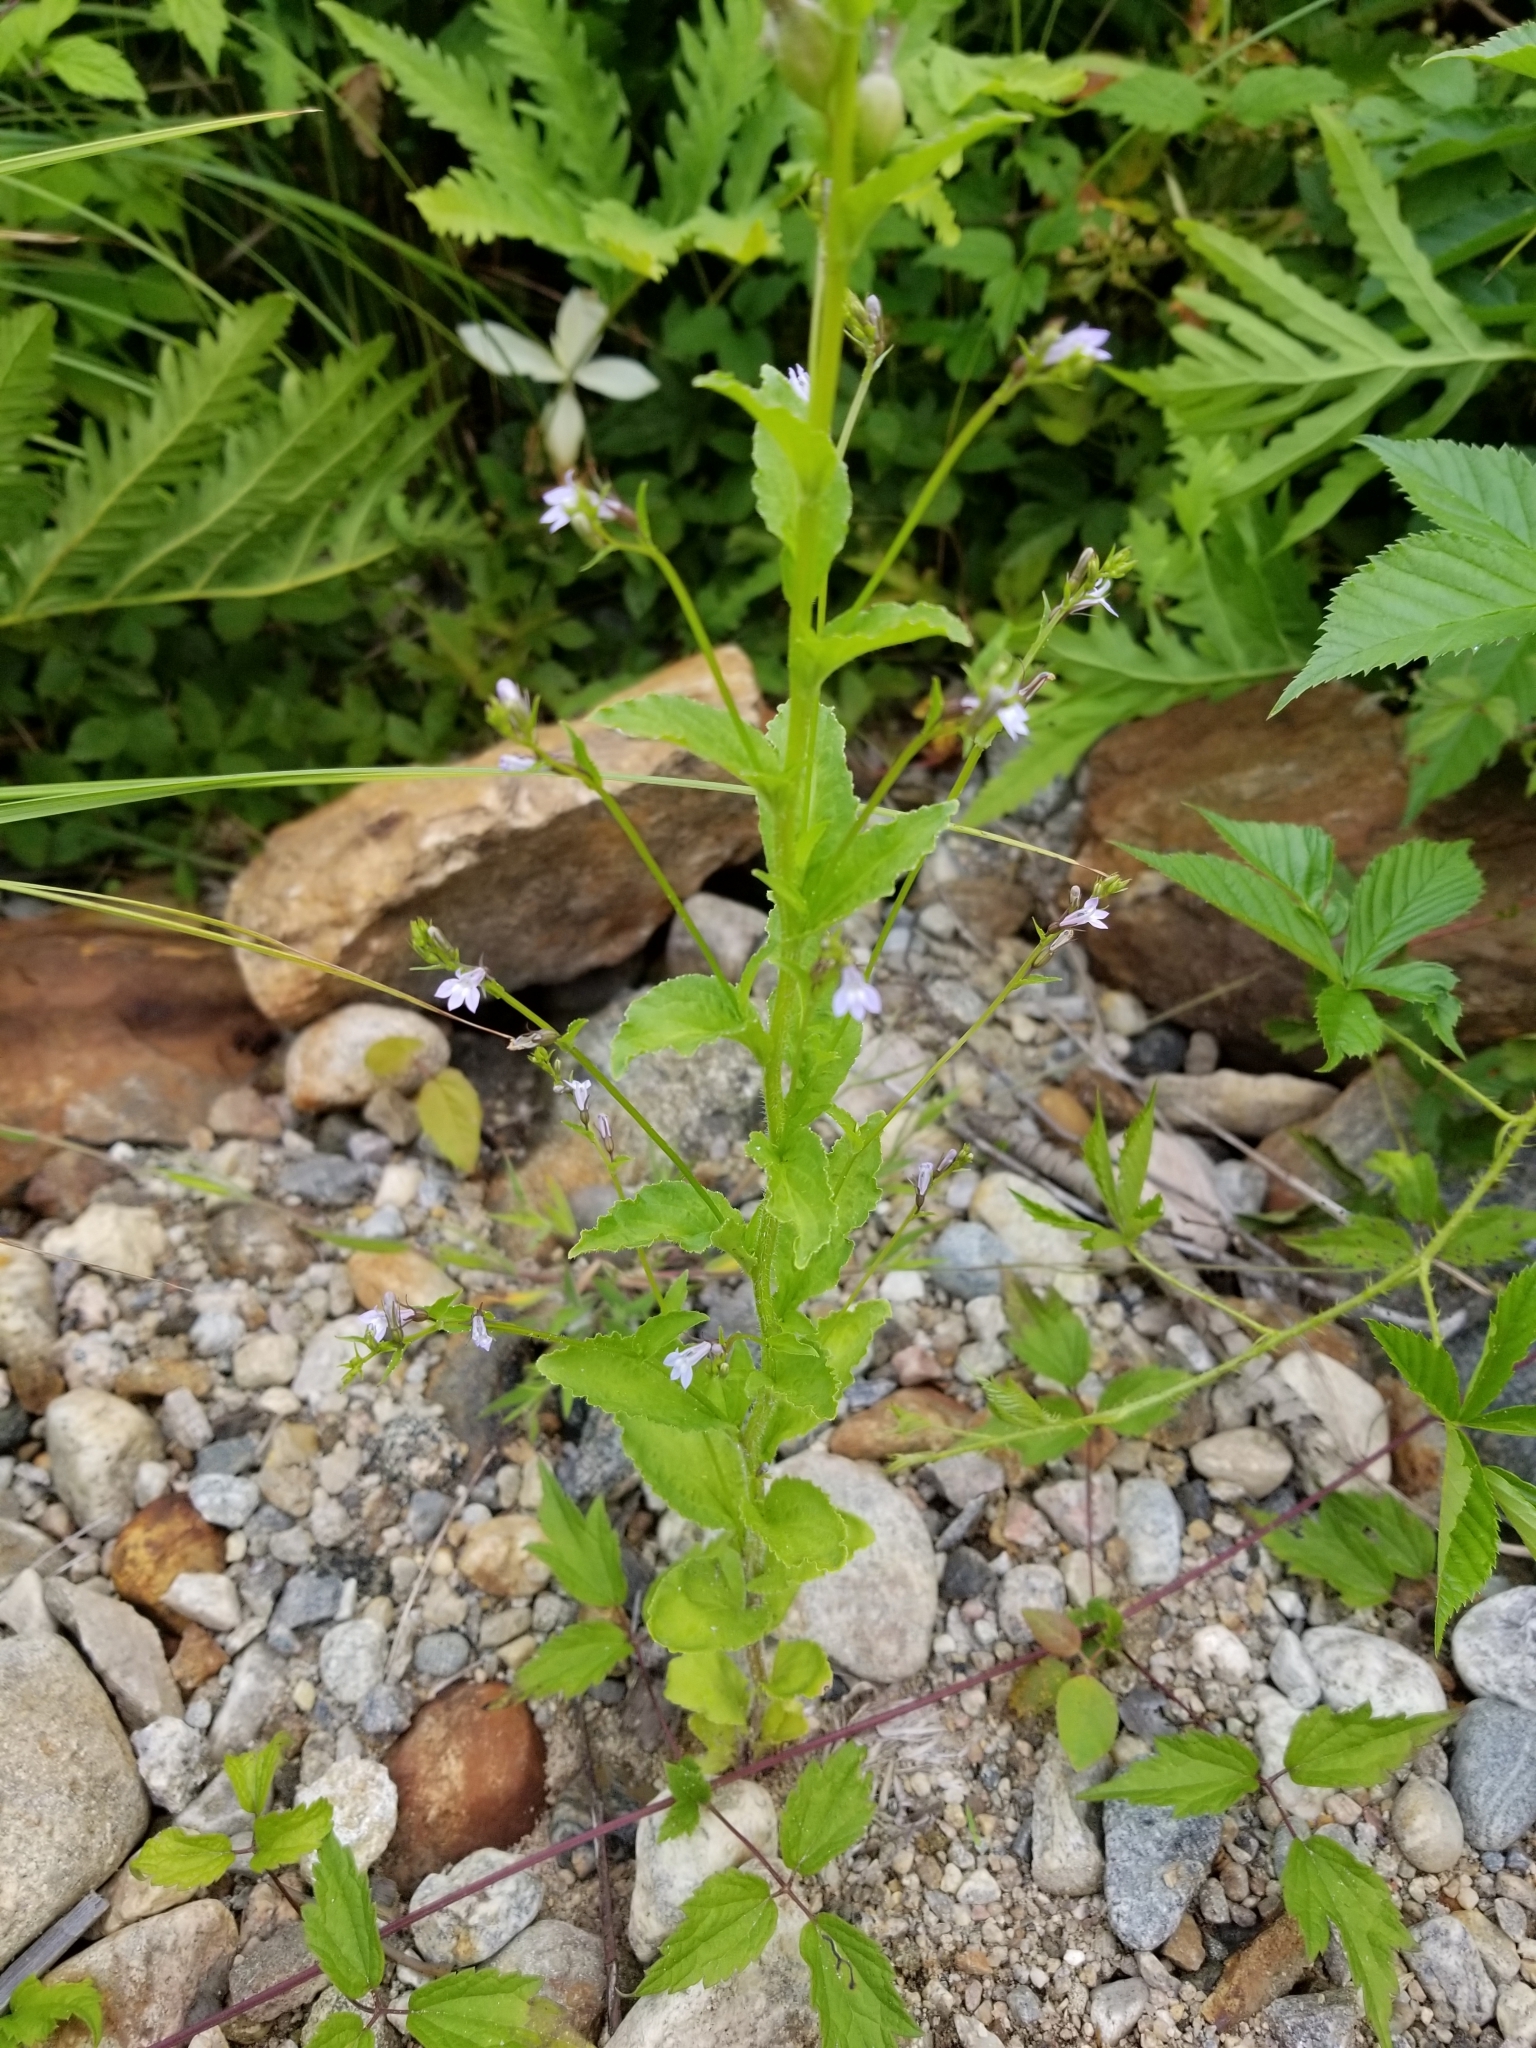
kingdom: Plantae
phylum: Tracheophyta
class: Magnoliopsida
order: Asterales
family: Campanulaceae
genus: Lobelia
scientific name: Lobelia inflata
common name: Indian tobacco
